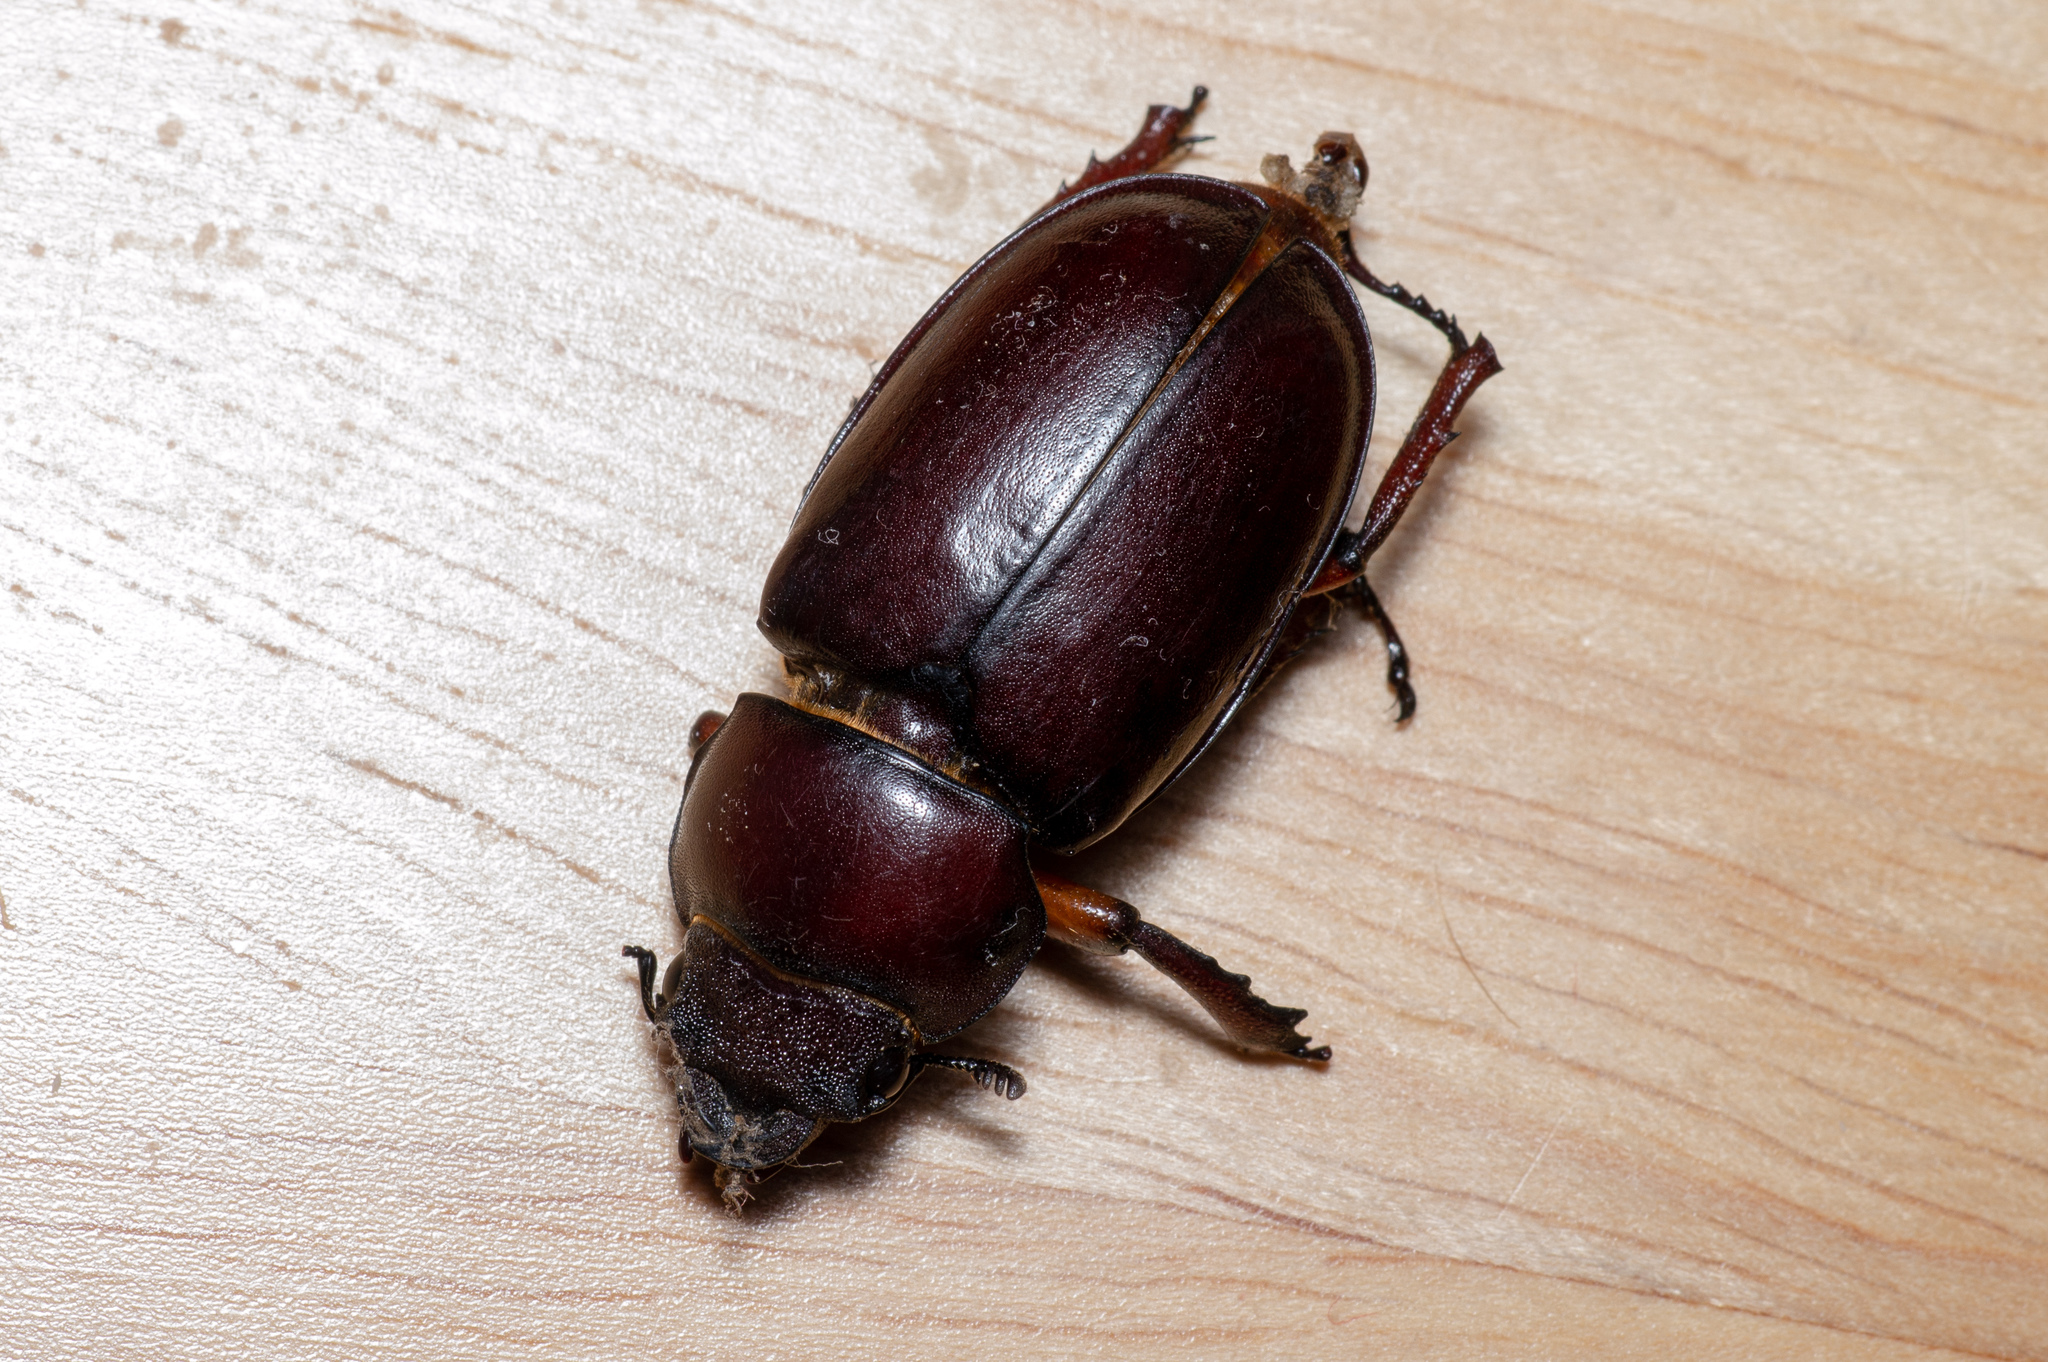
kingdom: Animalia
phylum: Arthropoda
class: Insecta
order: Coleoptera
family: Lucanidae
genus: Lucanus
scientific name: Lucanus capreolus
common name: Stag beetle
